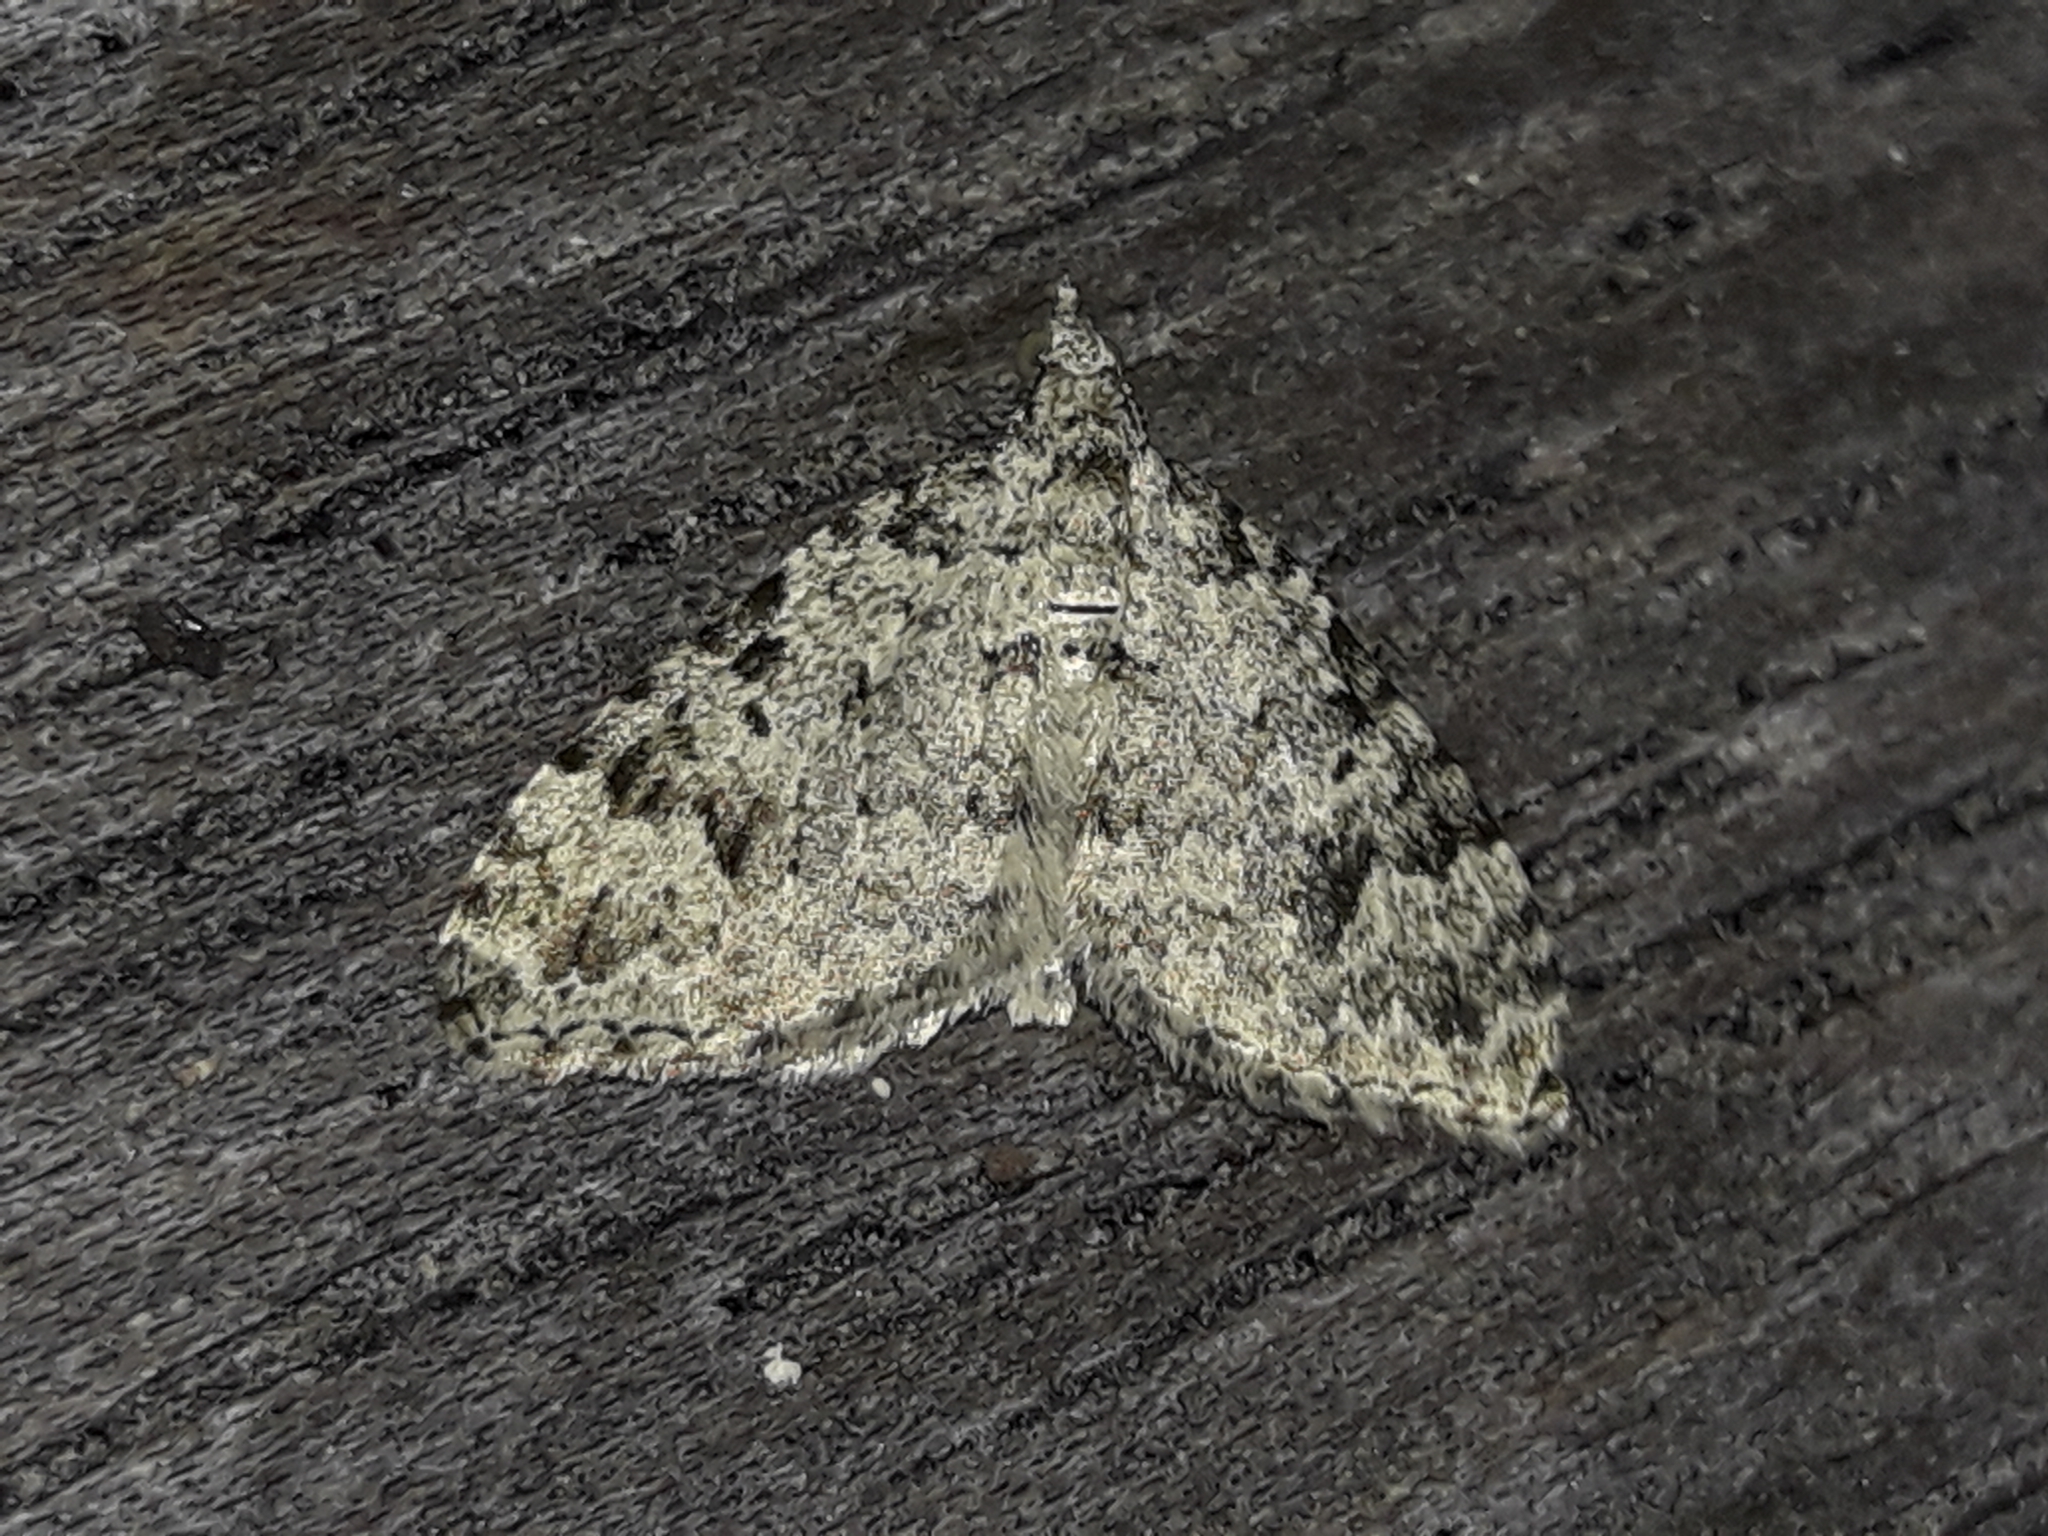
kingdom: Animalia
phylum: Arthropoda
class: Insecta
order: Lepidoptera
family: Geometridae
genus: Helastia
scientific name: Helastia cinerearia
